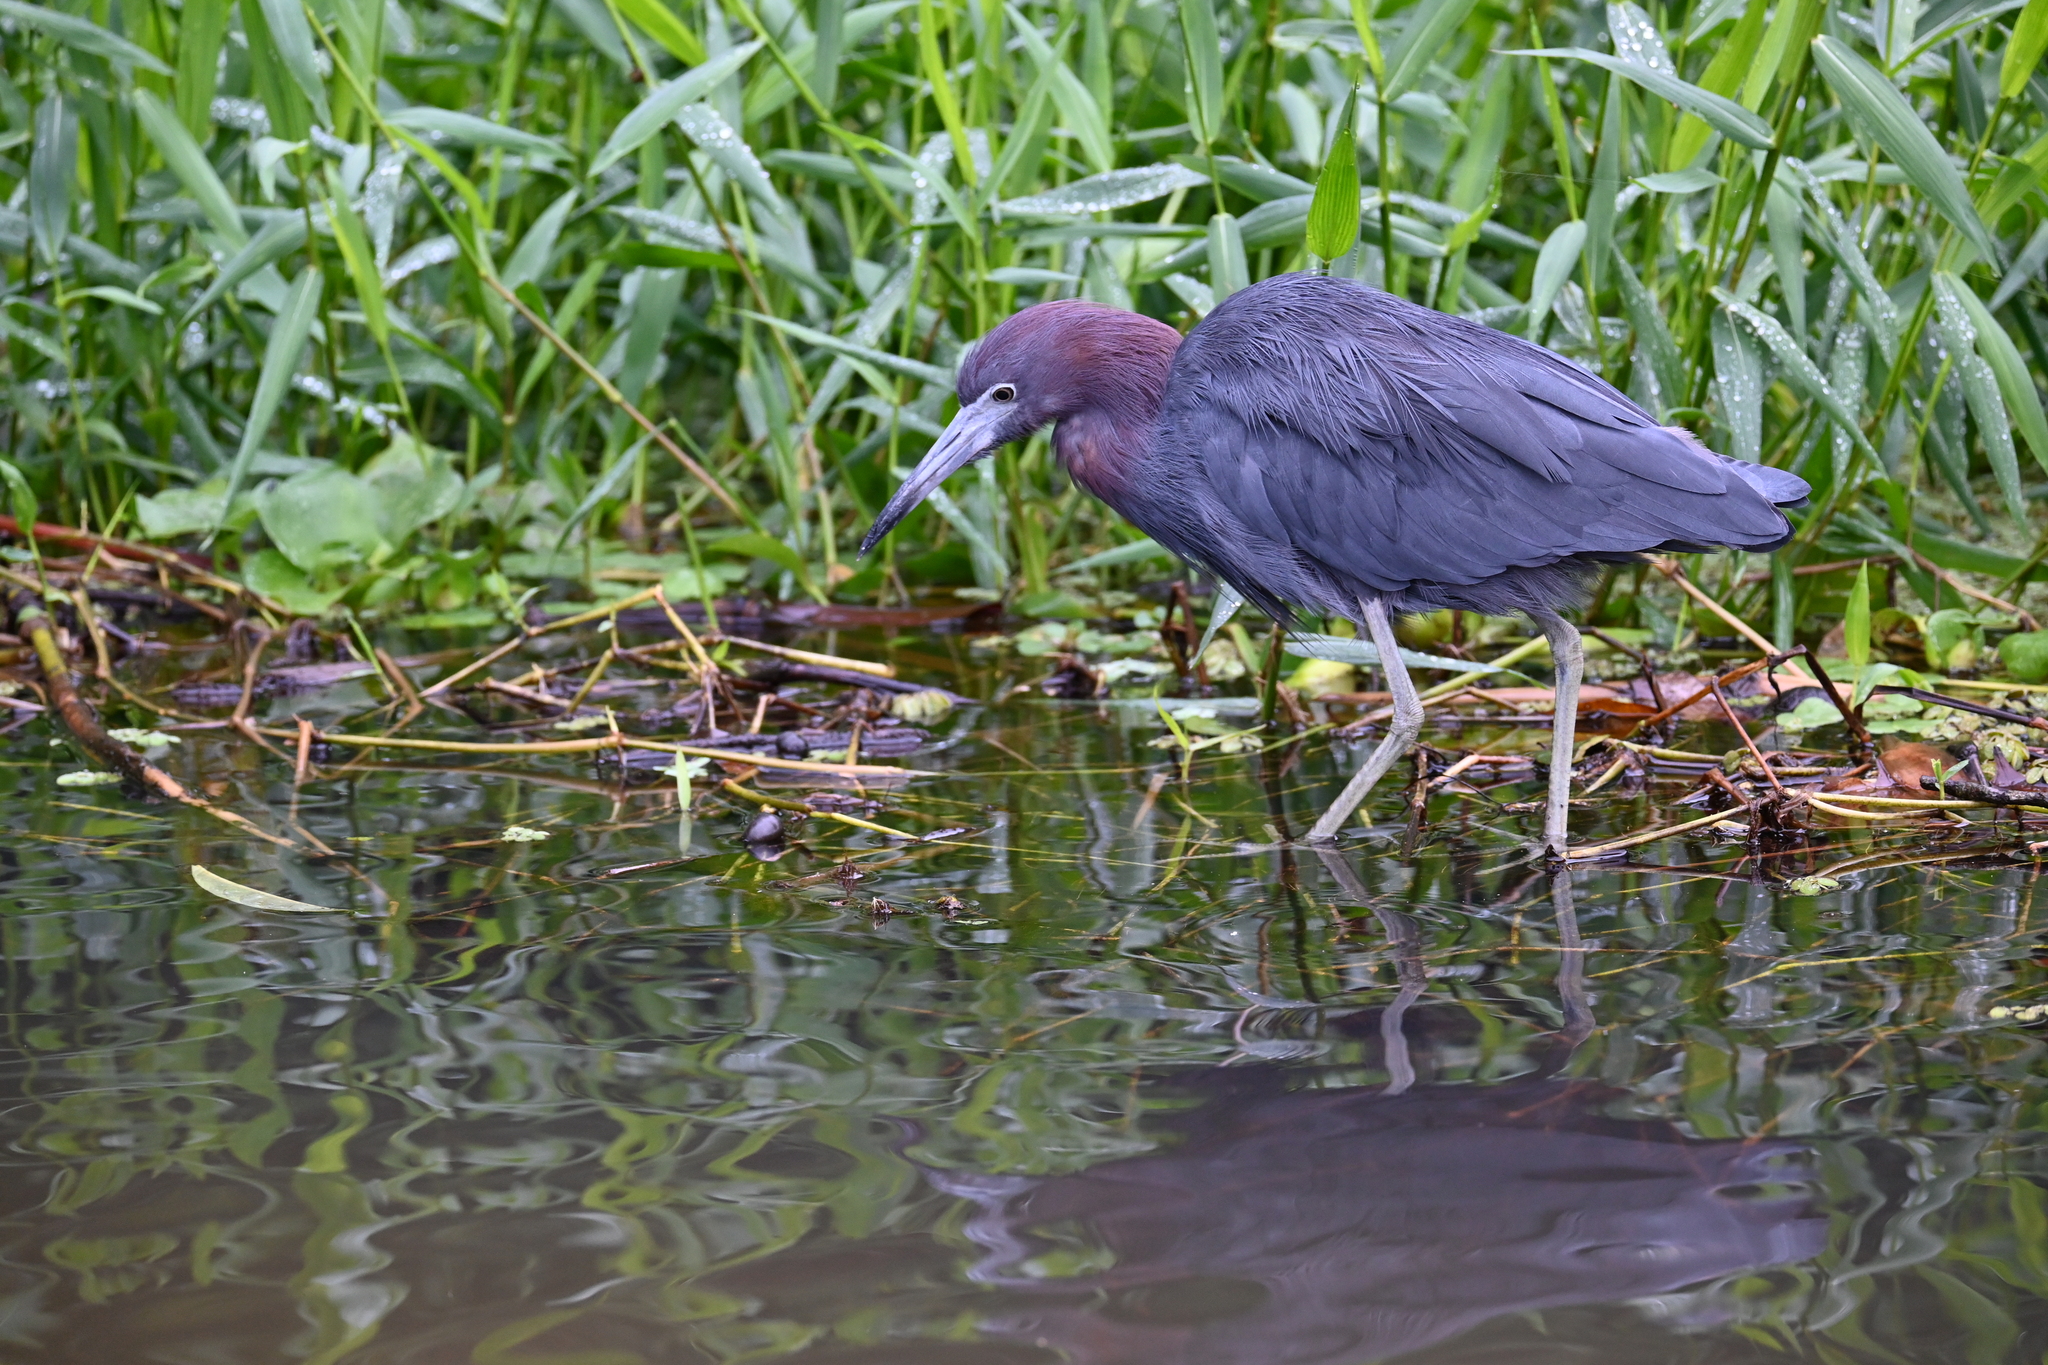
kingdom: Animalia
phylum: Chordata
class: Aves
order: Pelecaniformes
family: Ardeidae
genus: Egretta
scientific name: Egretta caerulea
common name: Little blue heron
